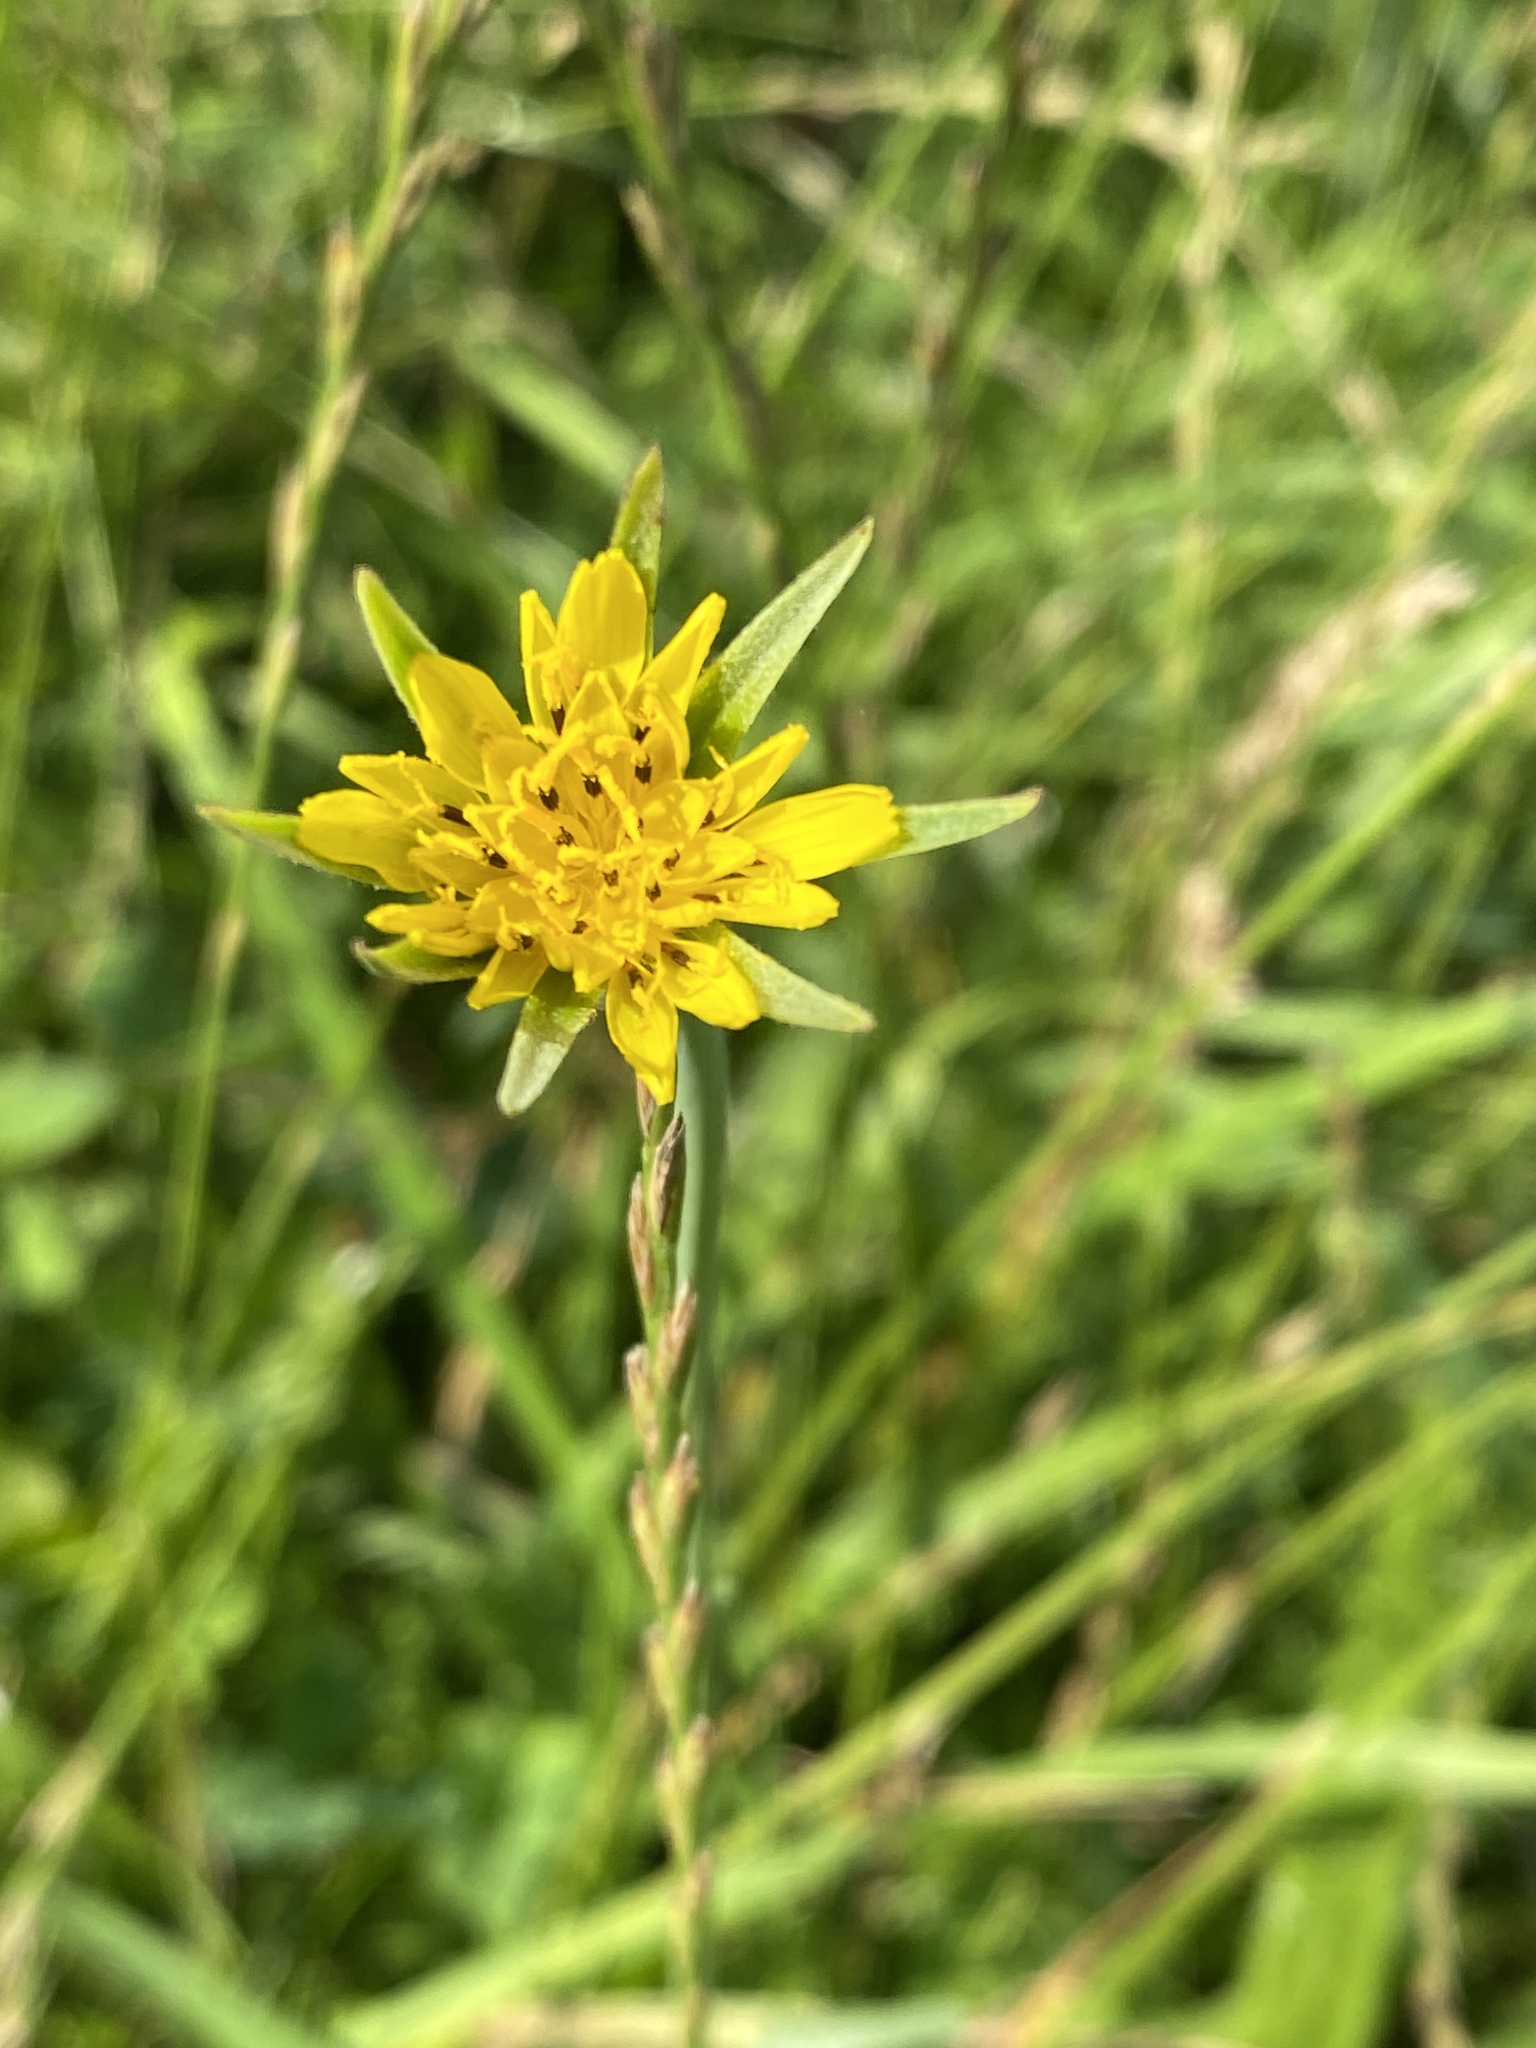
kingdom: Plantae
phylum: Tracheophyta
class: Magnoliopsida
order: Asterales
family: Asteraceae
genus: Tragopogon
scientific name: Tragopogon pratensis
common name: Goat's-beard
